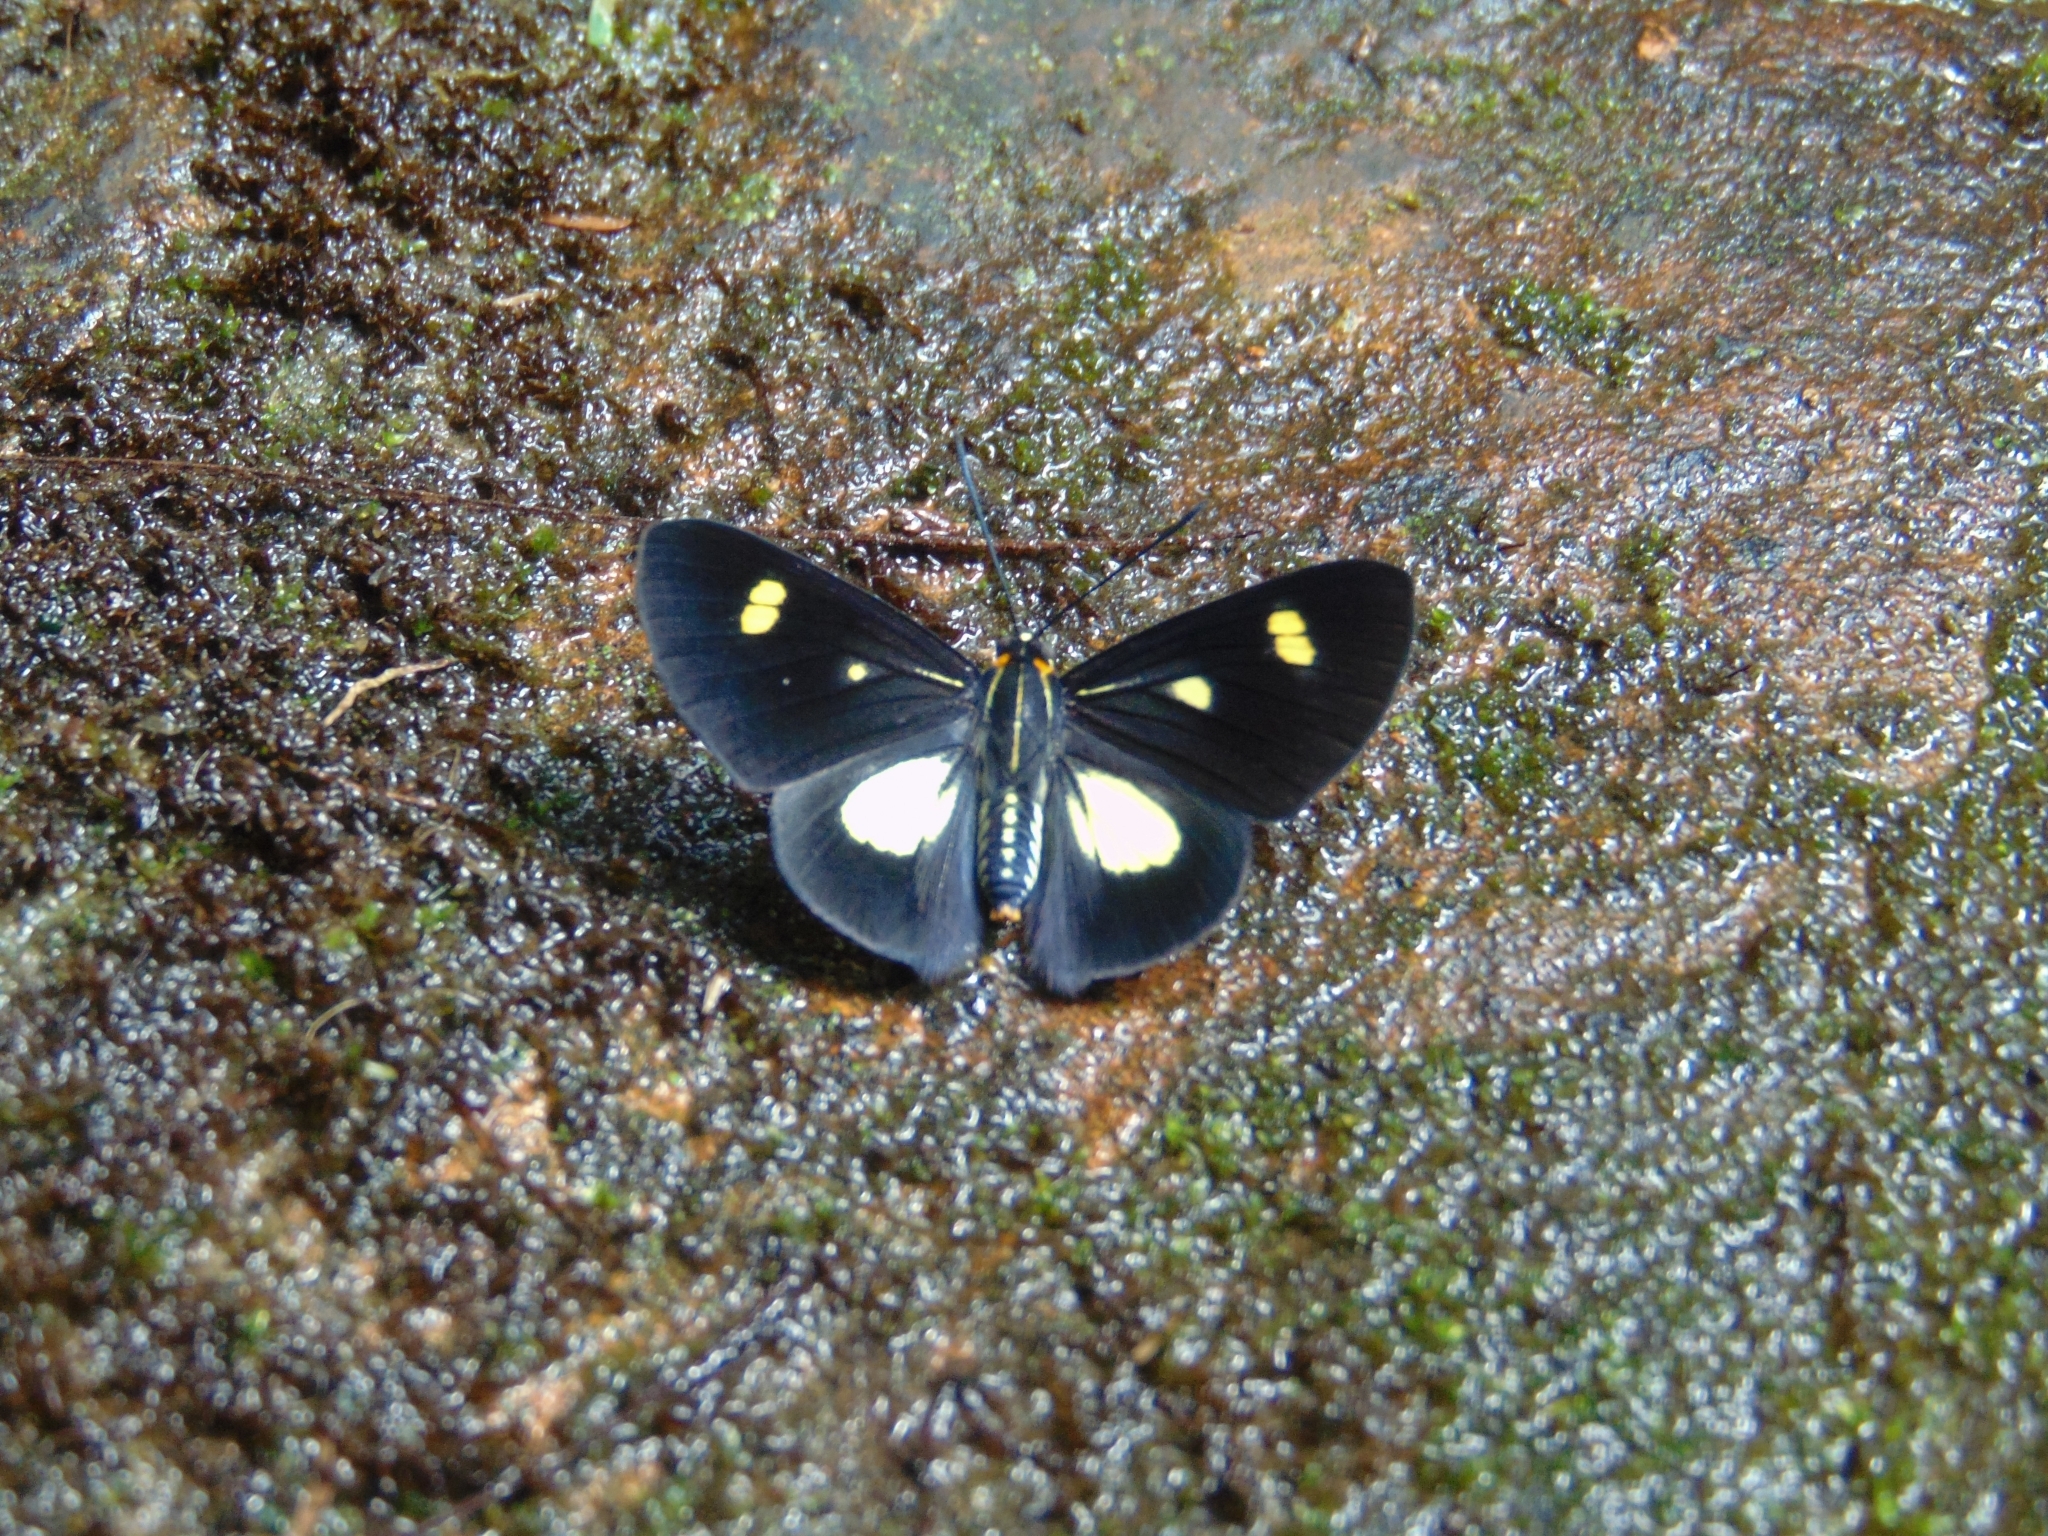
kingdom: Animalia
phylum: Arthropoda
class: Insecta
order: Lepidoptera
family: Riodinidae
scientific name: Riodinidae
